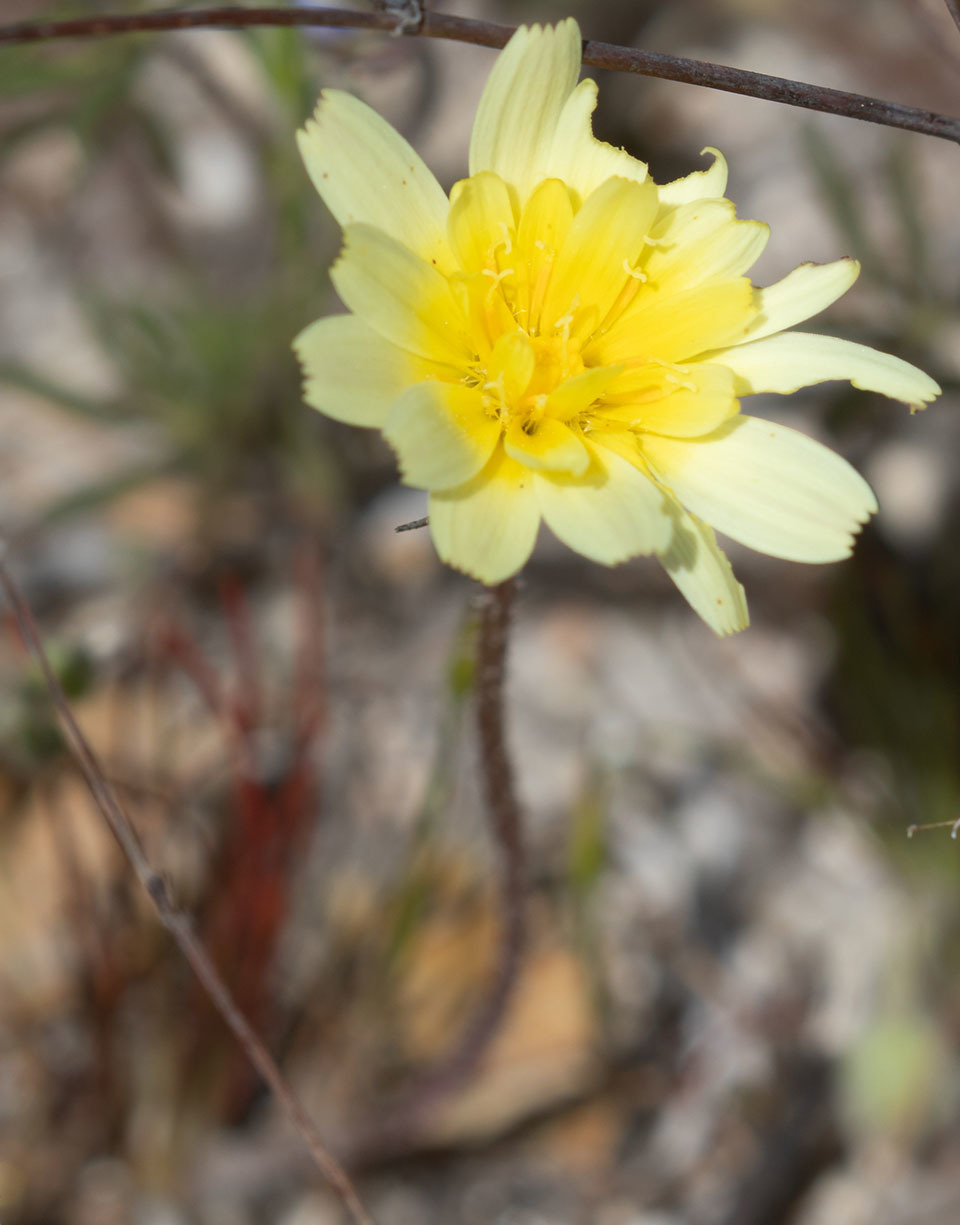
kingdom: Plantae
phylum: Tracheophyta
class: Magnoliopsida
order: Asterales
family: Asteraceae
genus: Malacothrix
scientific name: Malacothrix californica
